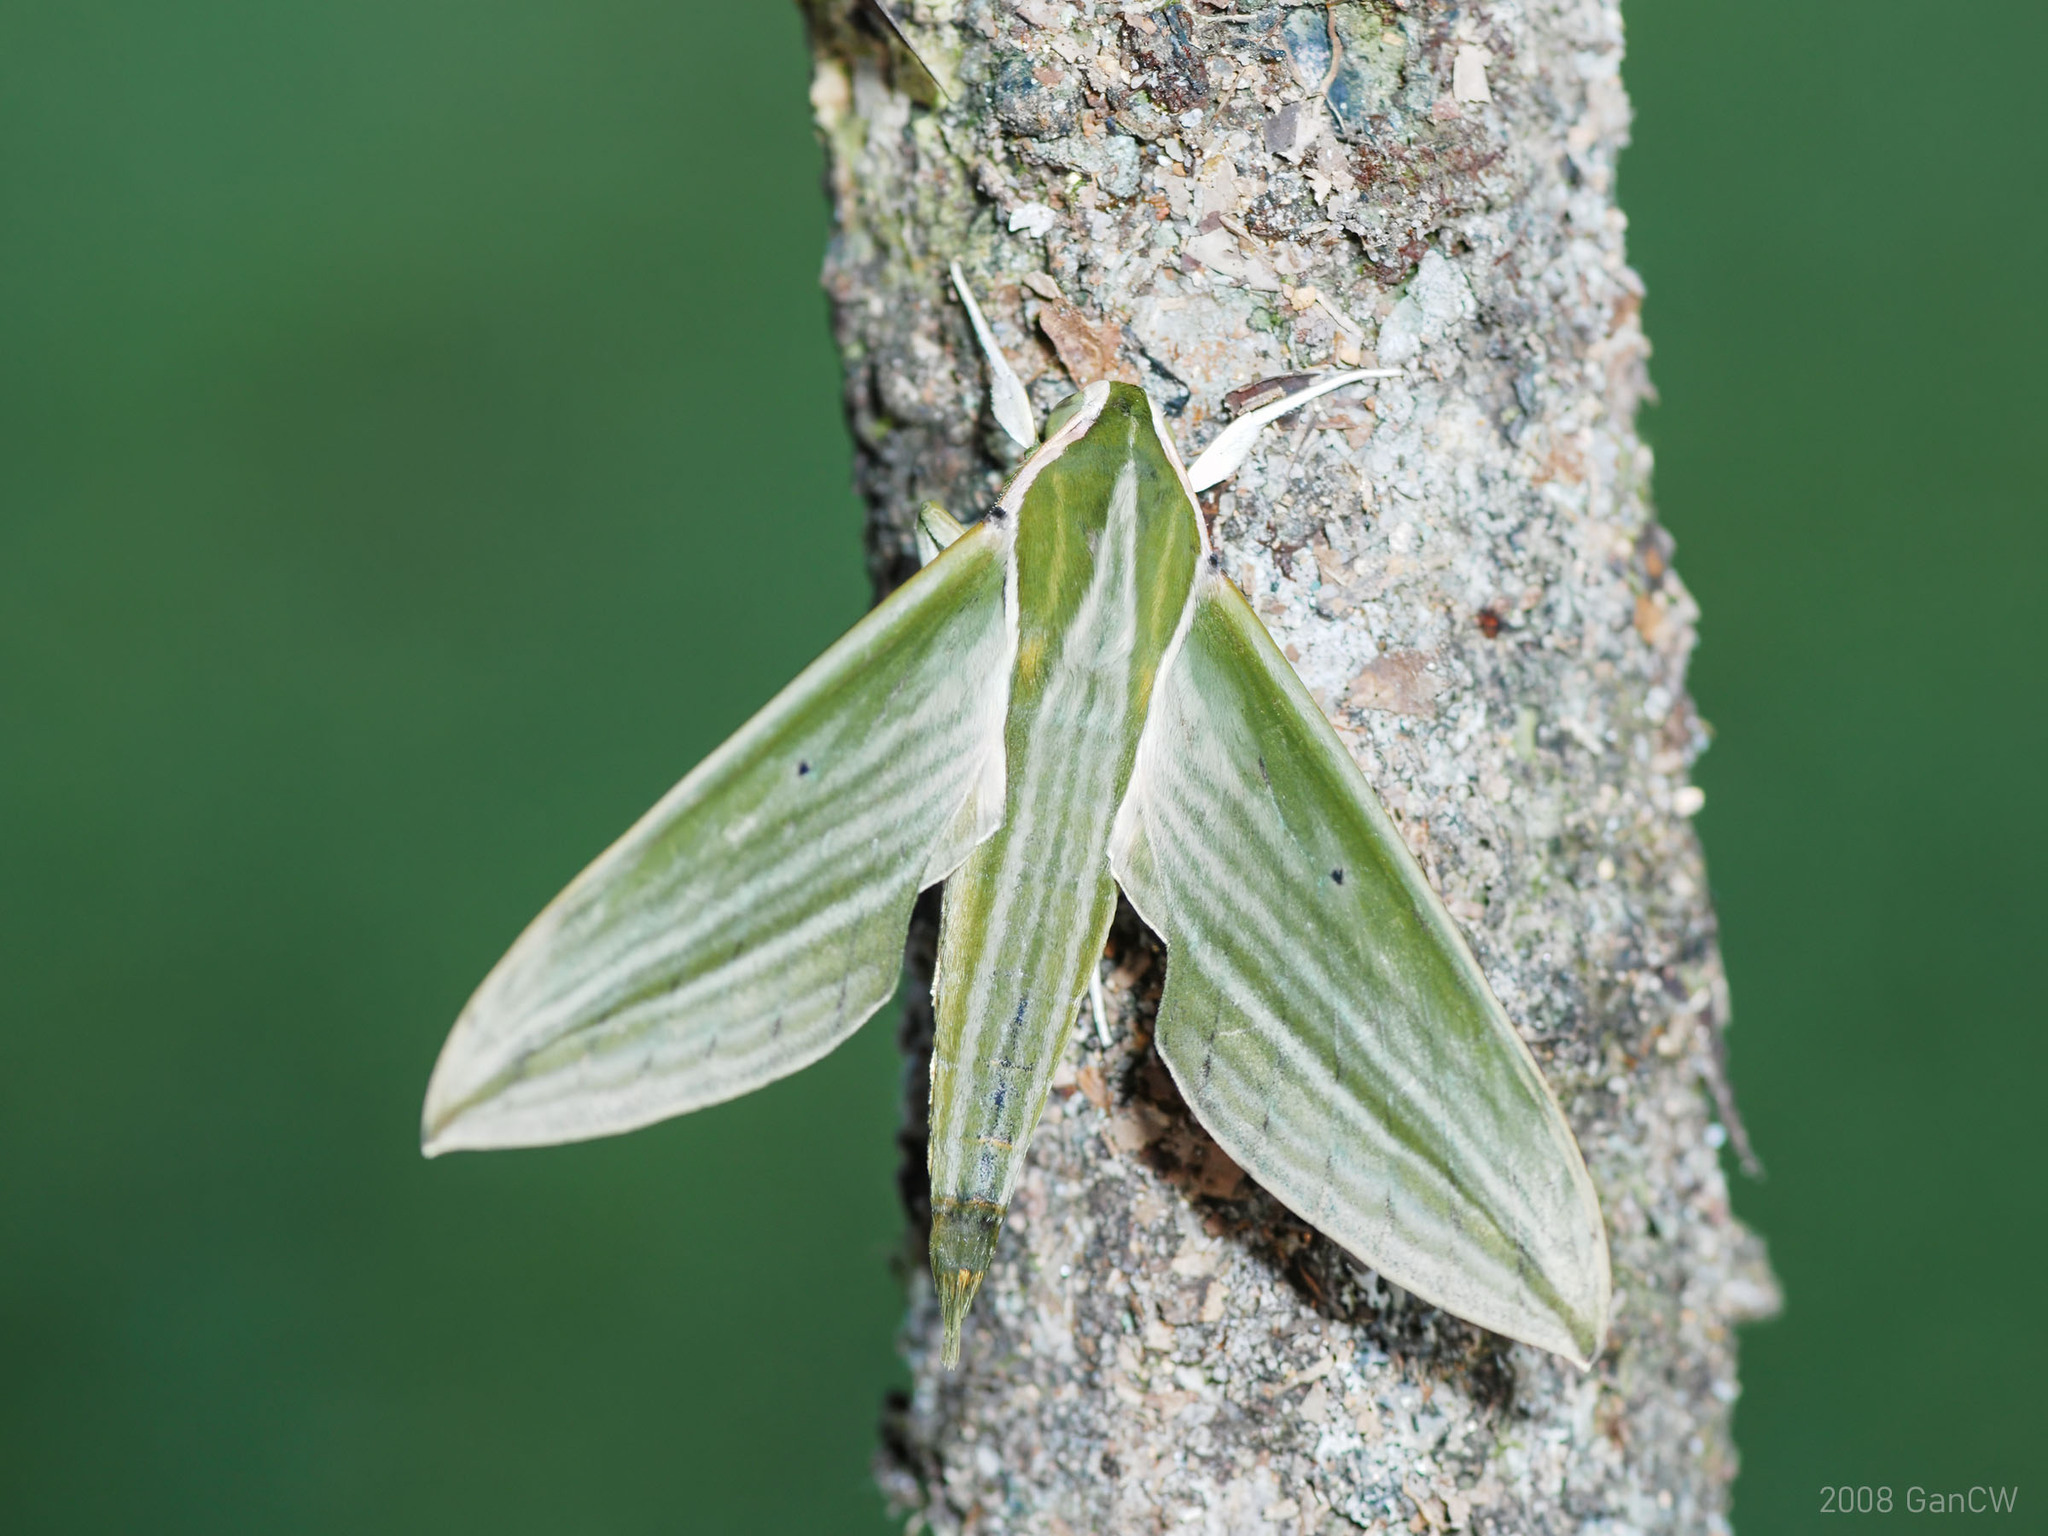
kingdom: Animalia
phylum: Arthropoda
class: Insecta
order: Lepidoptera
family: Sphingidae
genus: Cechetra
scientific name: Cechetra subangustata
